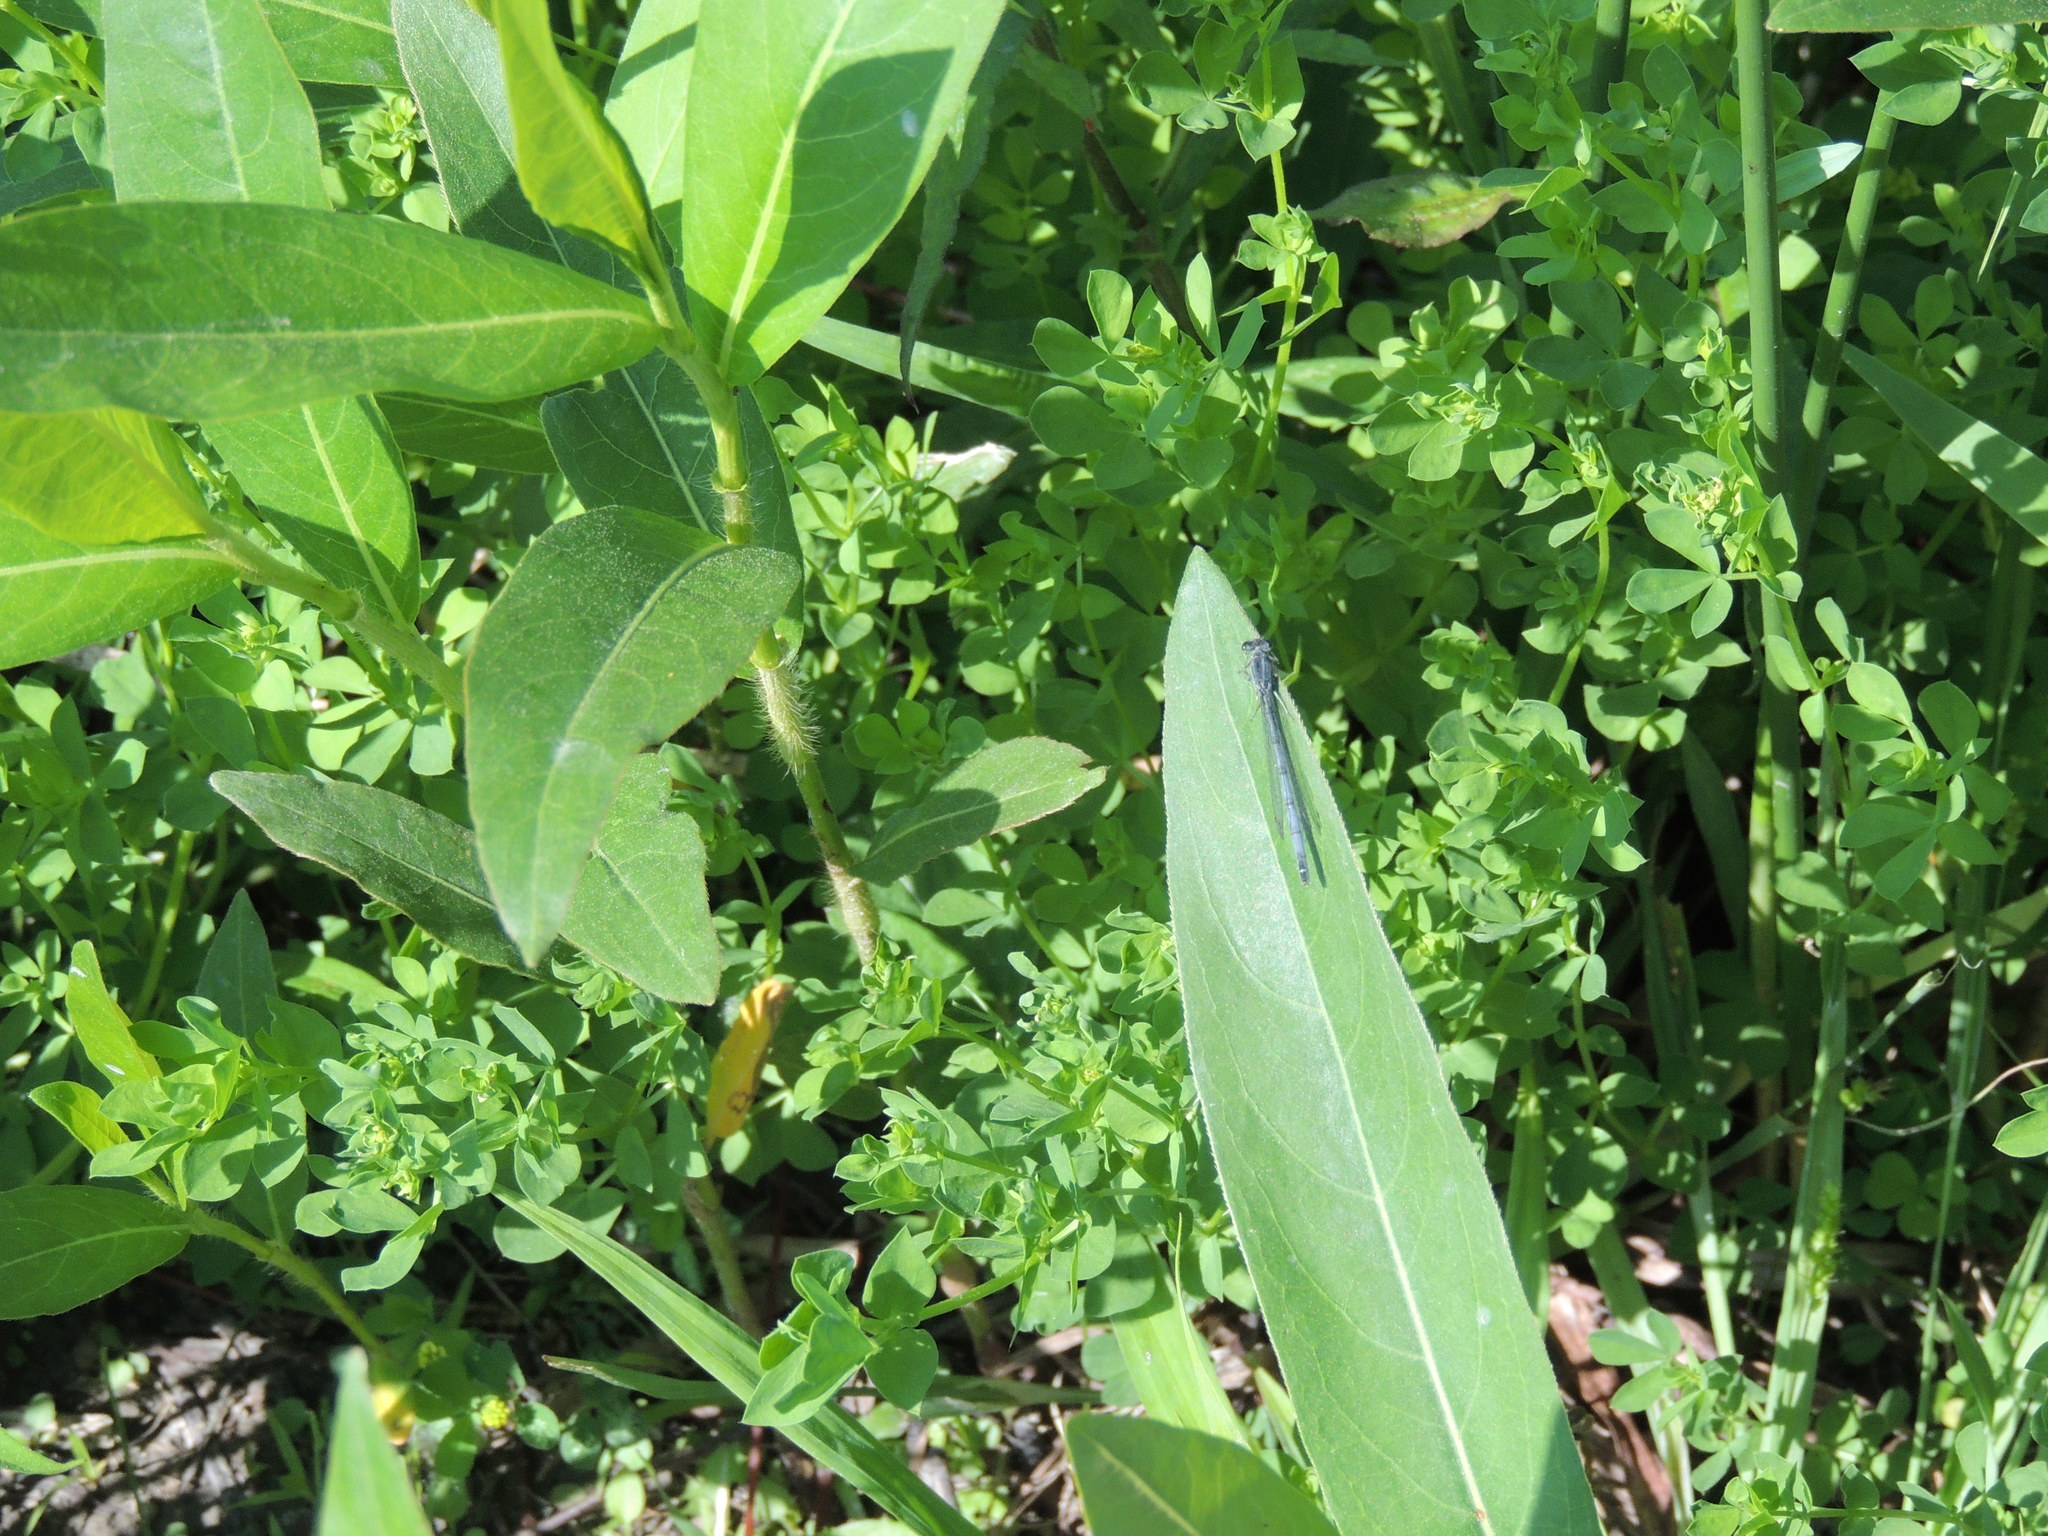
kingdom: Animalia
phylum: Arthropoda
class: Insecta
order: Odonata
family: Coenagrionidae
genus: Ischnura
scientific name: Ischnura verticalis
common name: Eastern forktail
